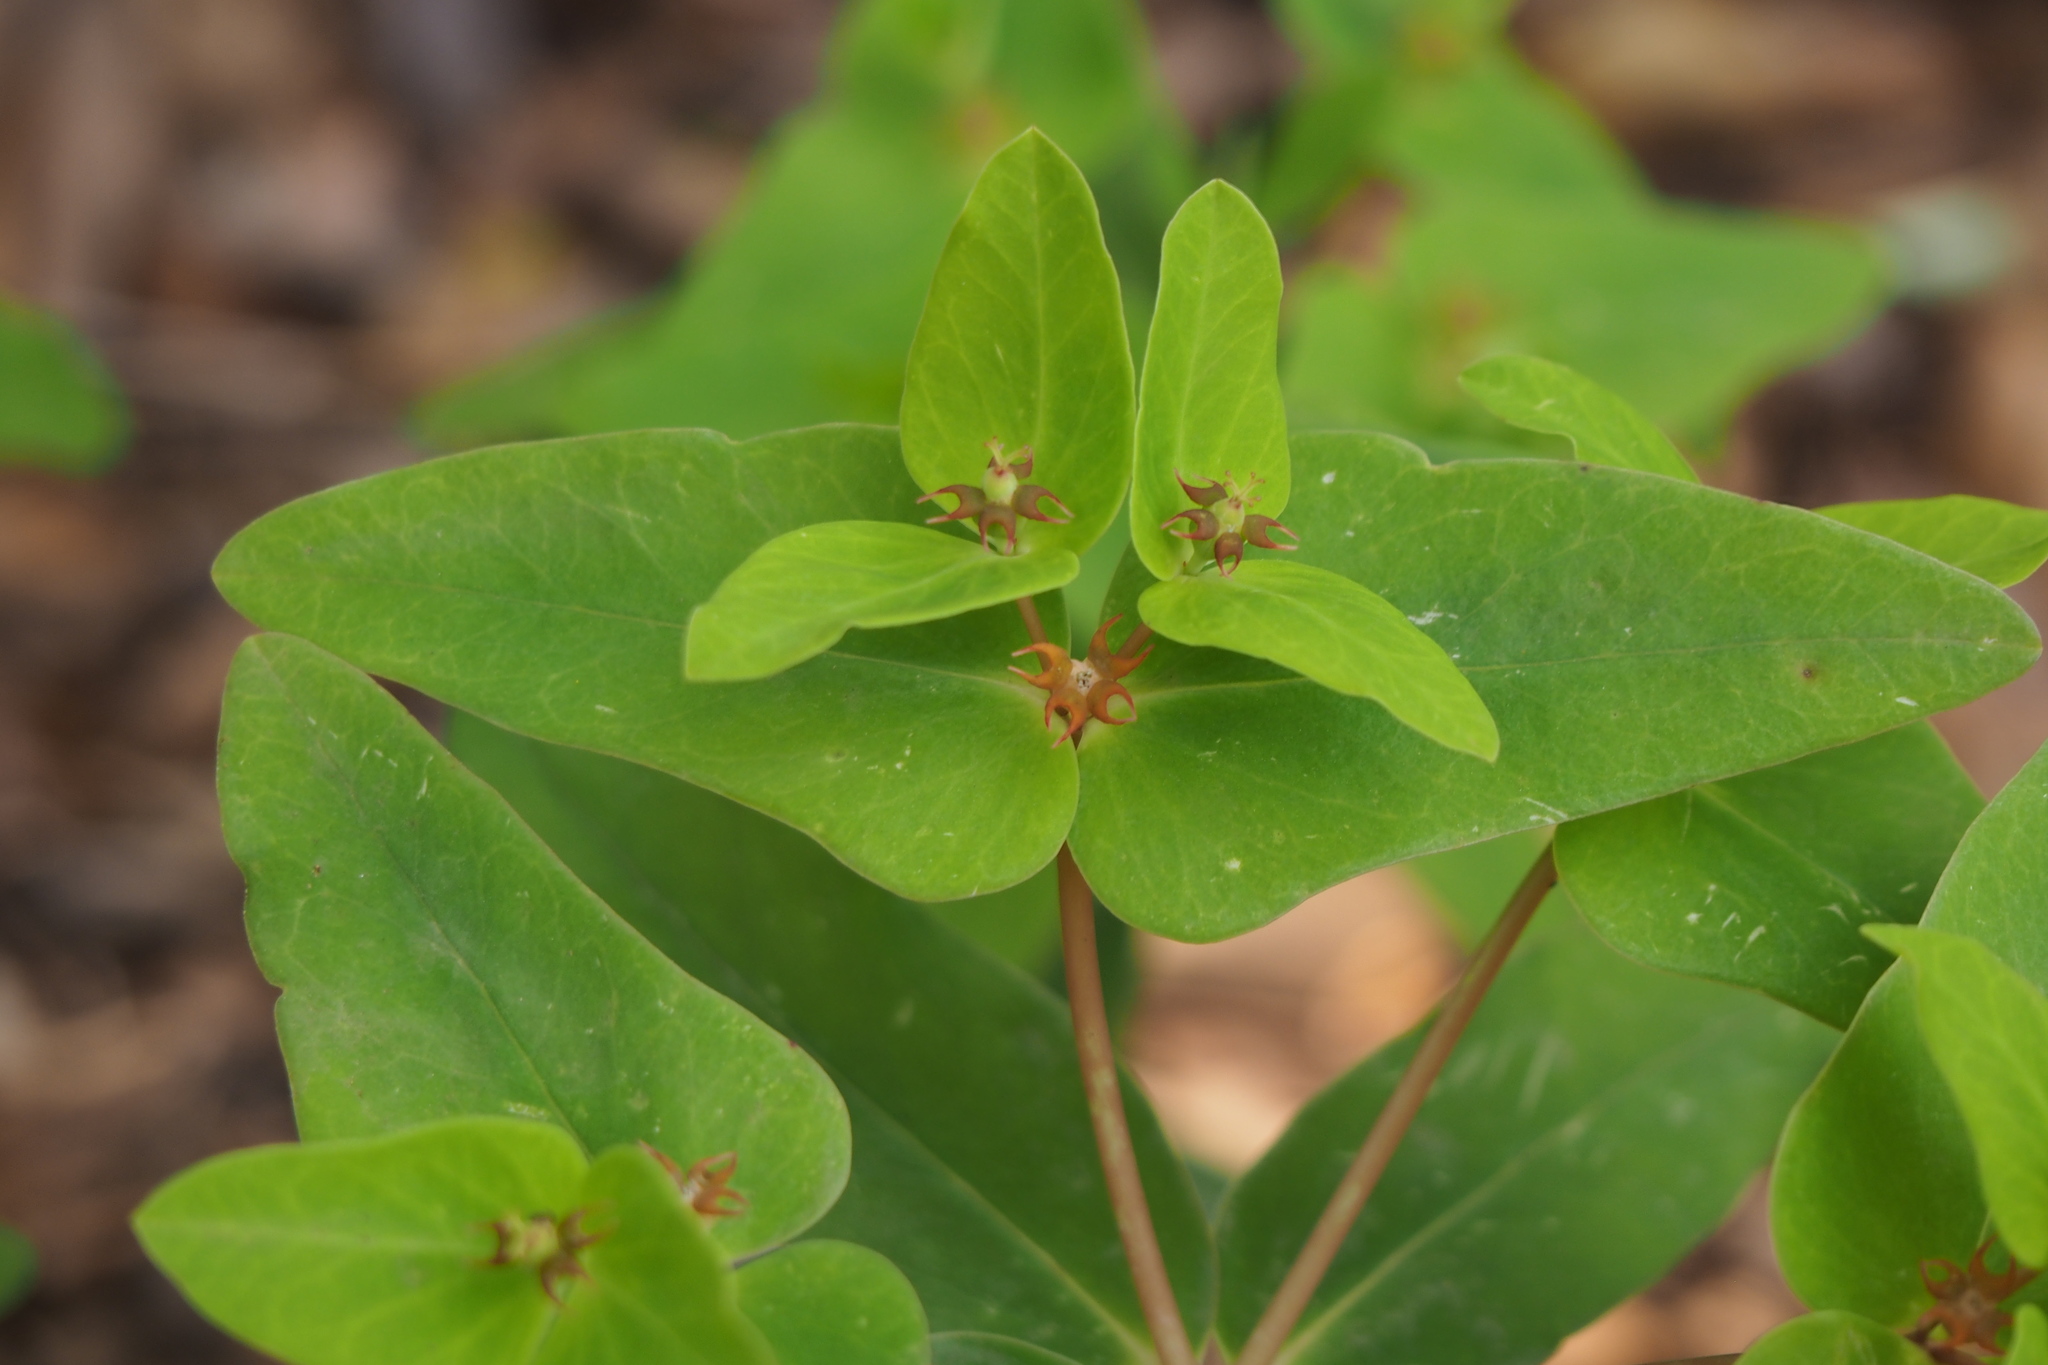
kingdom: Plantae
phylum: Tracheophyta
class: Magnoliopsida
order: Malpighiales
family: Euphorbiaceae
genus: Euphorbia
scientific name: Euphorbia sieboldiana
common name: Siebold's spurge
